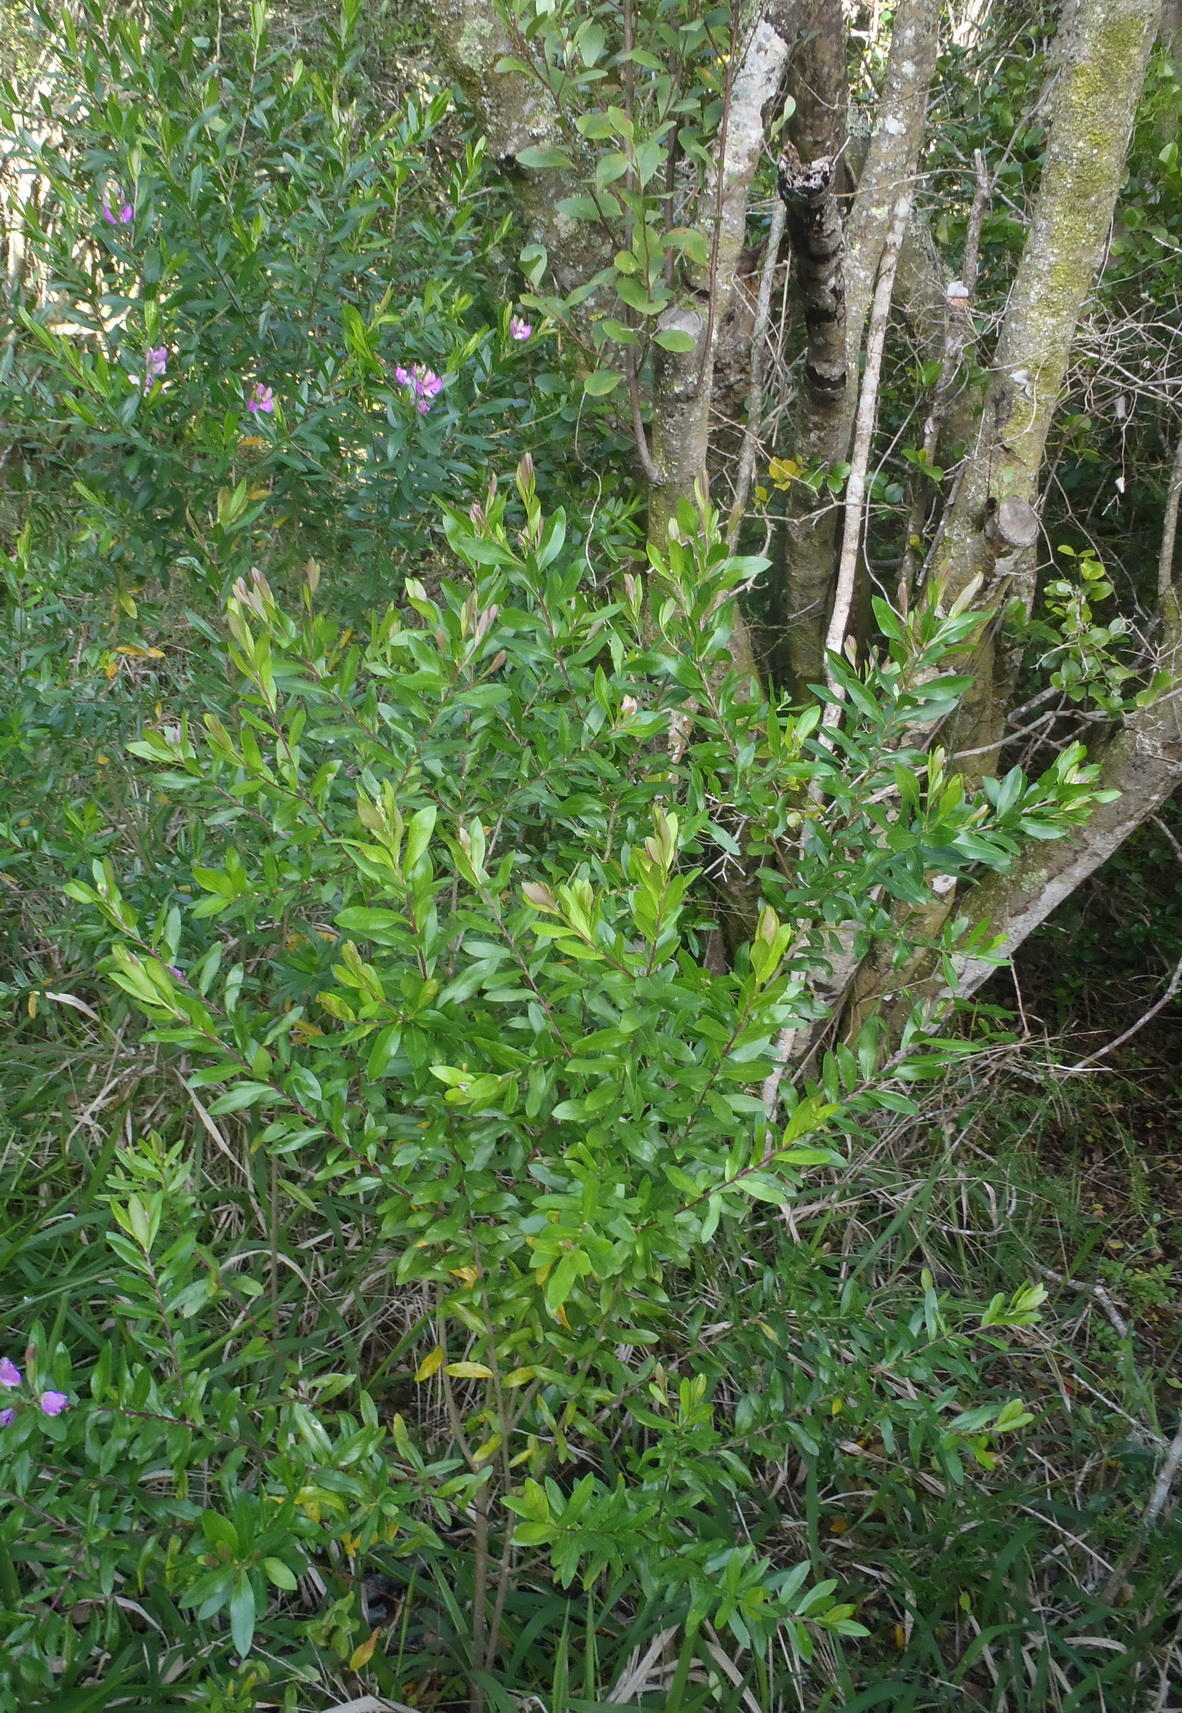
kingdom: Plantae
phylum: Tracheophyta
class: Magnoliopsida
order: Fabales
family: Polygalaceae
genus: Polygala
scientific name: Polygala myrtifolia
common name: Myrtle-leaf milkwort
